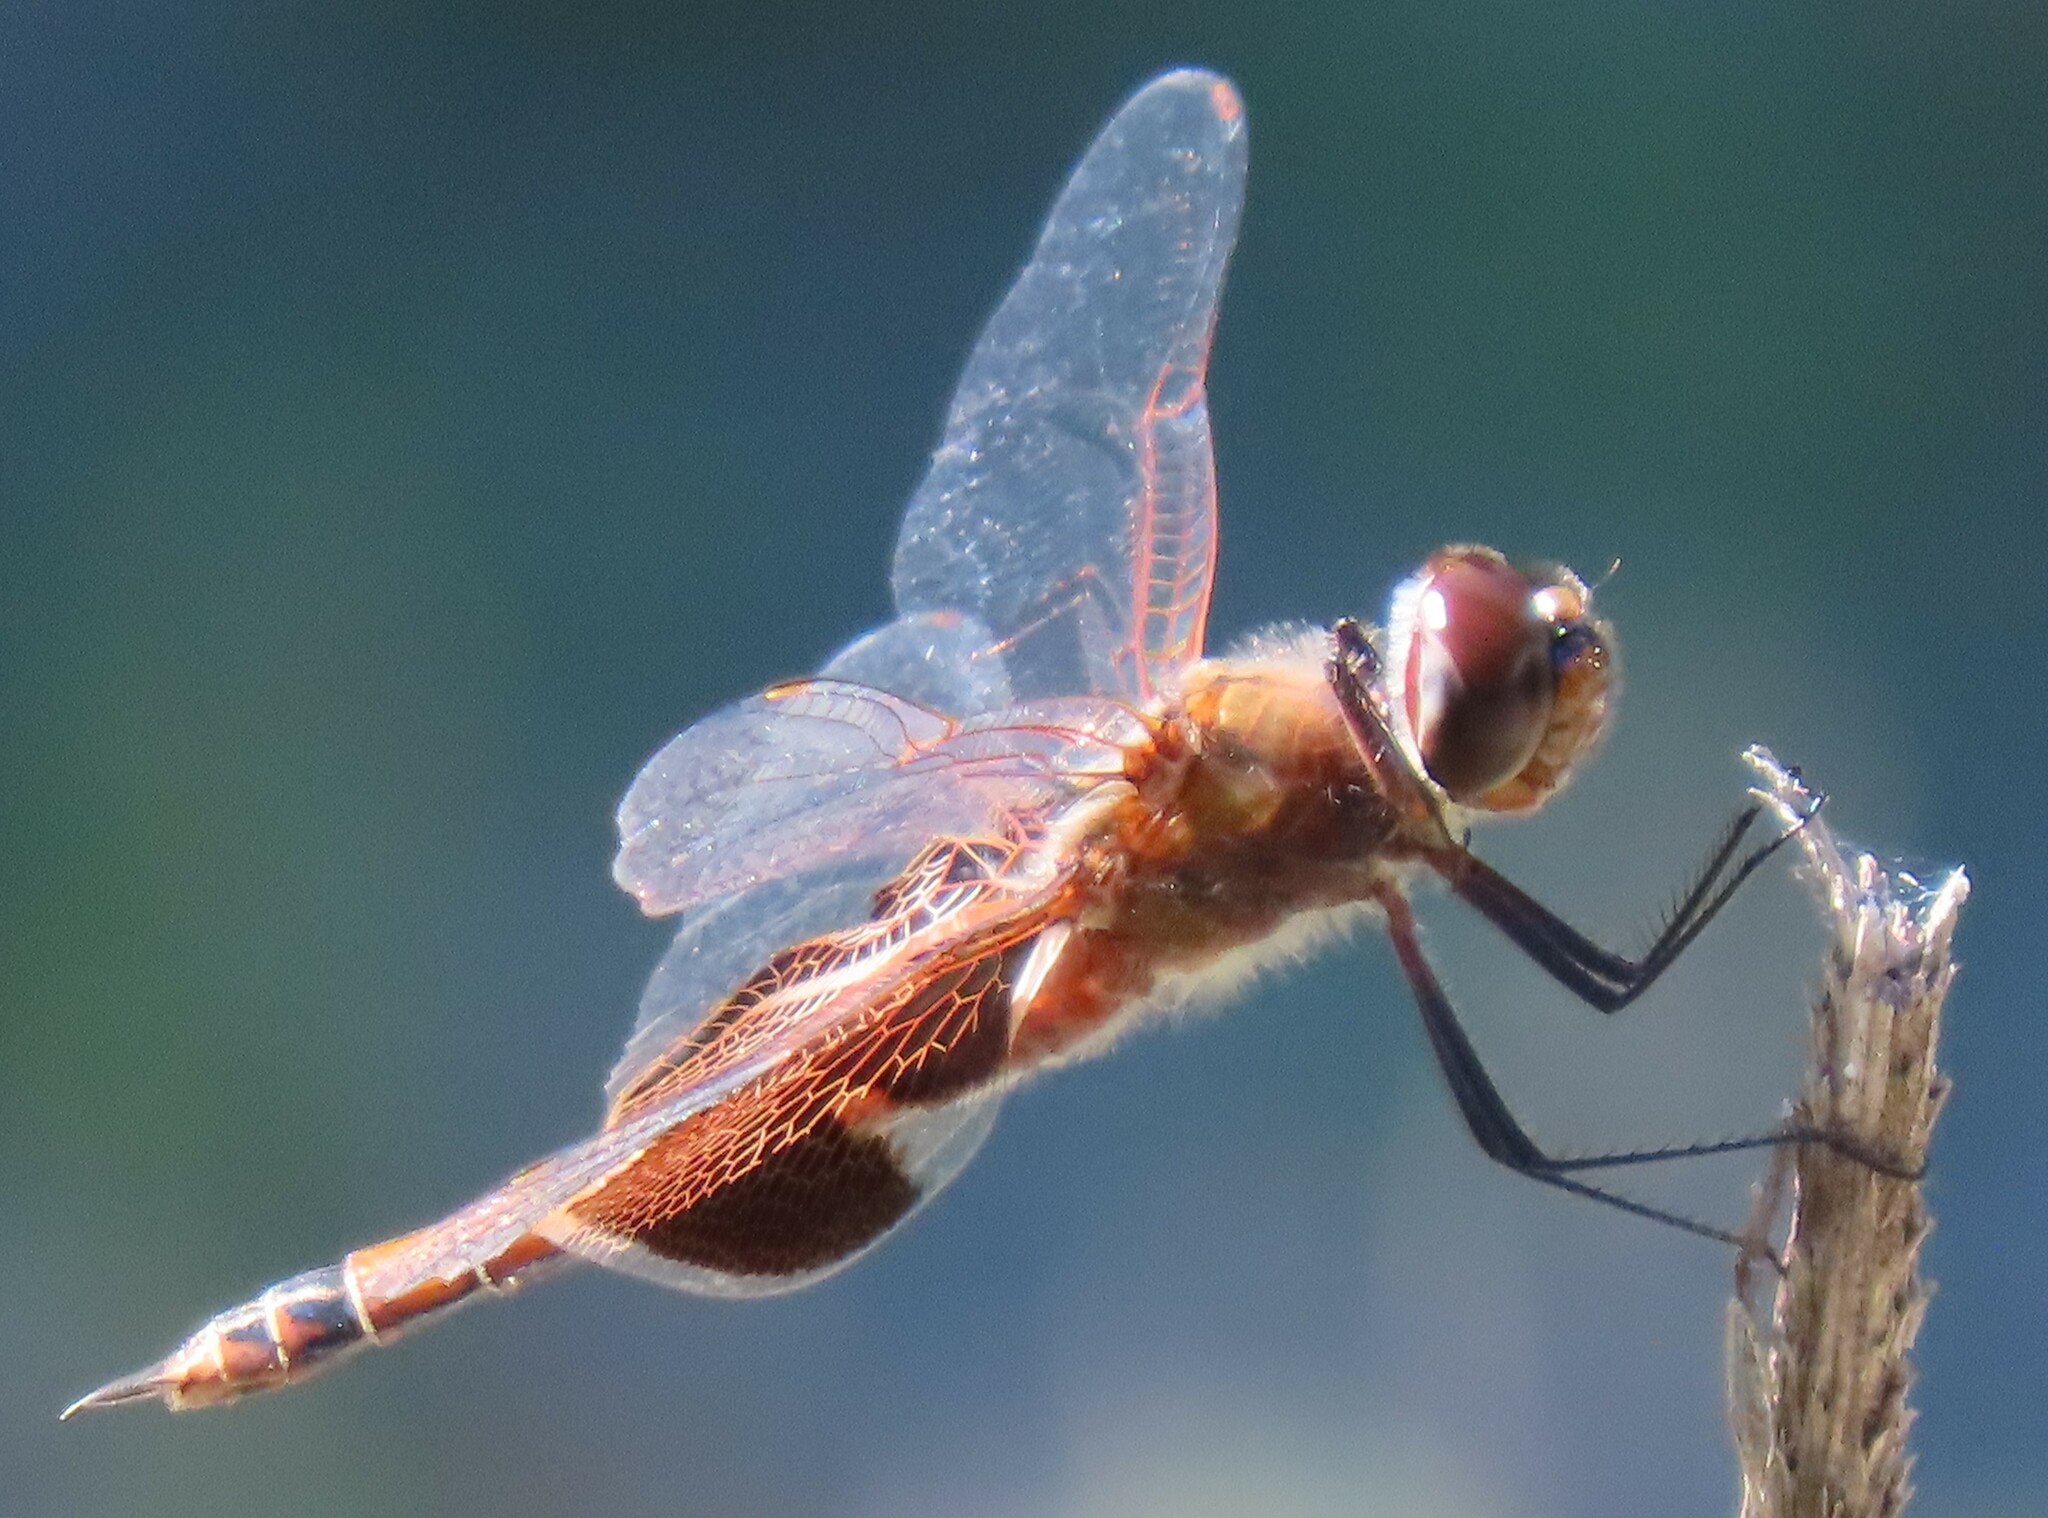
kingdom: Animalia
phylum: Arthropoda
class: Insecta
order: Odonata
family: Libellulidae
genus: Tramea
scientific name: Tramea carolina
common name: Carolina saddlebags
